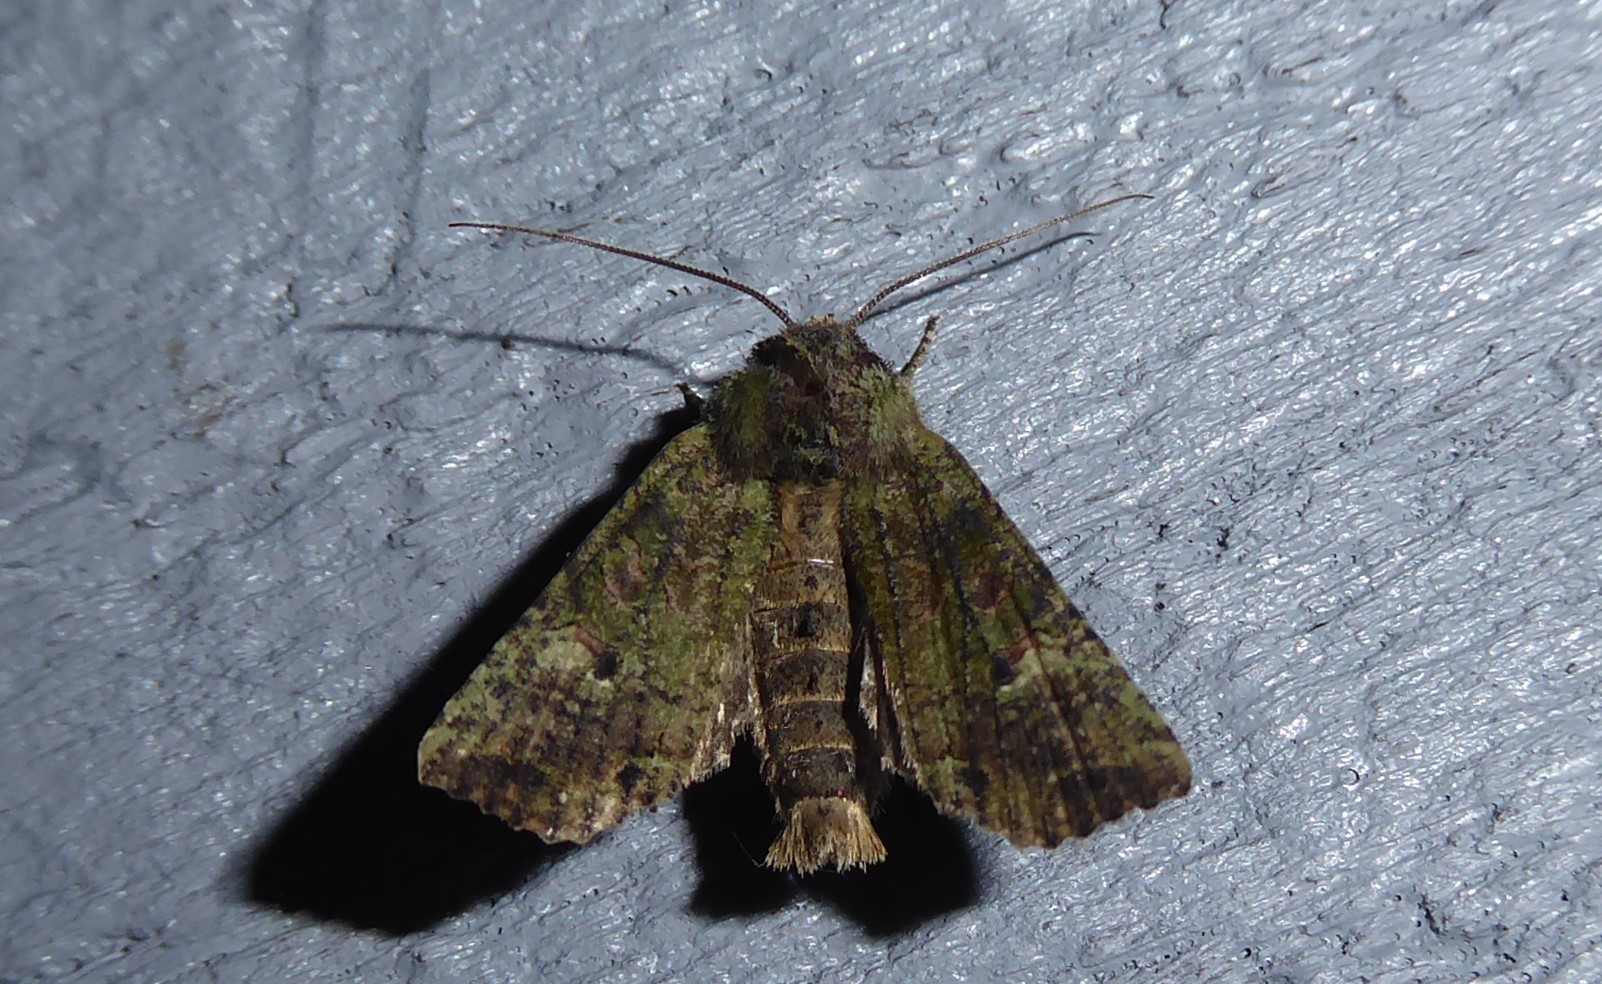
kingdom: Animalia
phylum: Arthropoda
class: Insecta
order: Lepidoptera
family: Noctuidae
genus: Meterana
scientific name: Meterana levis
